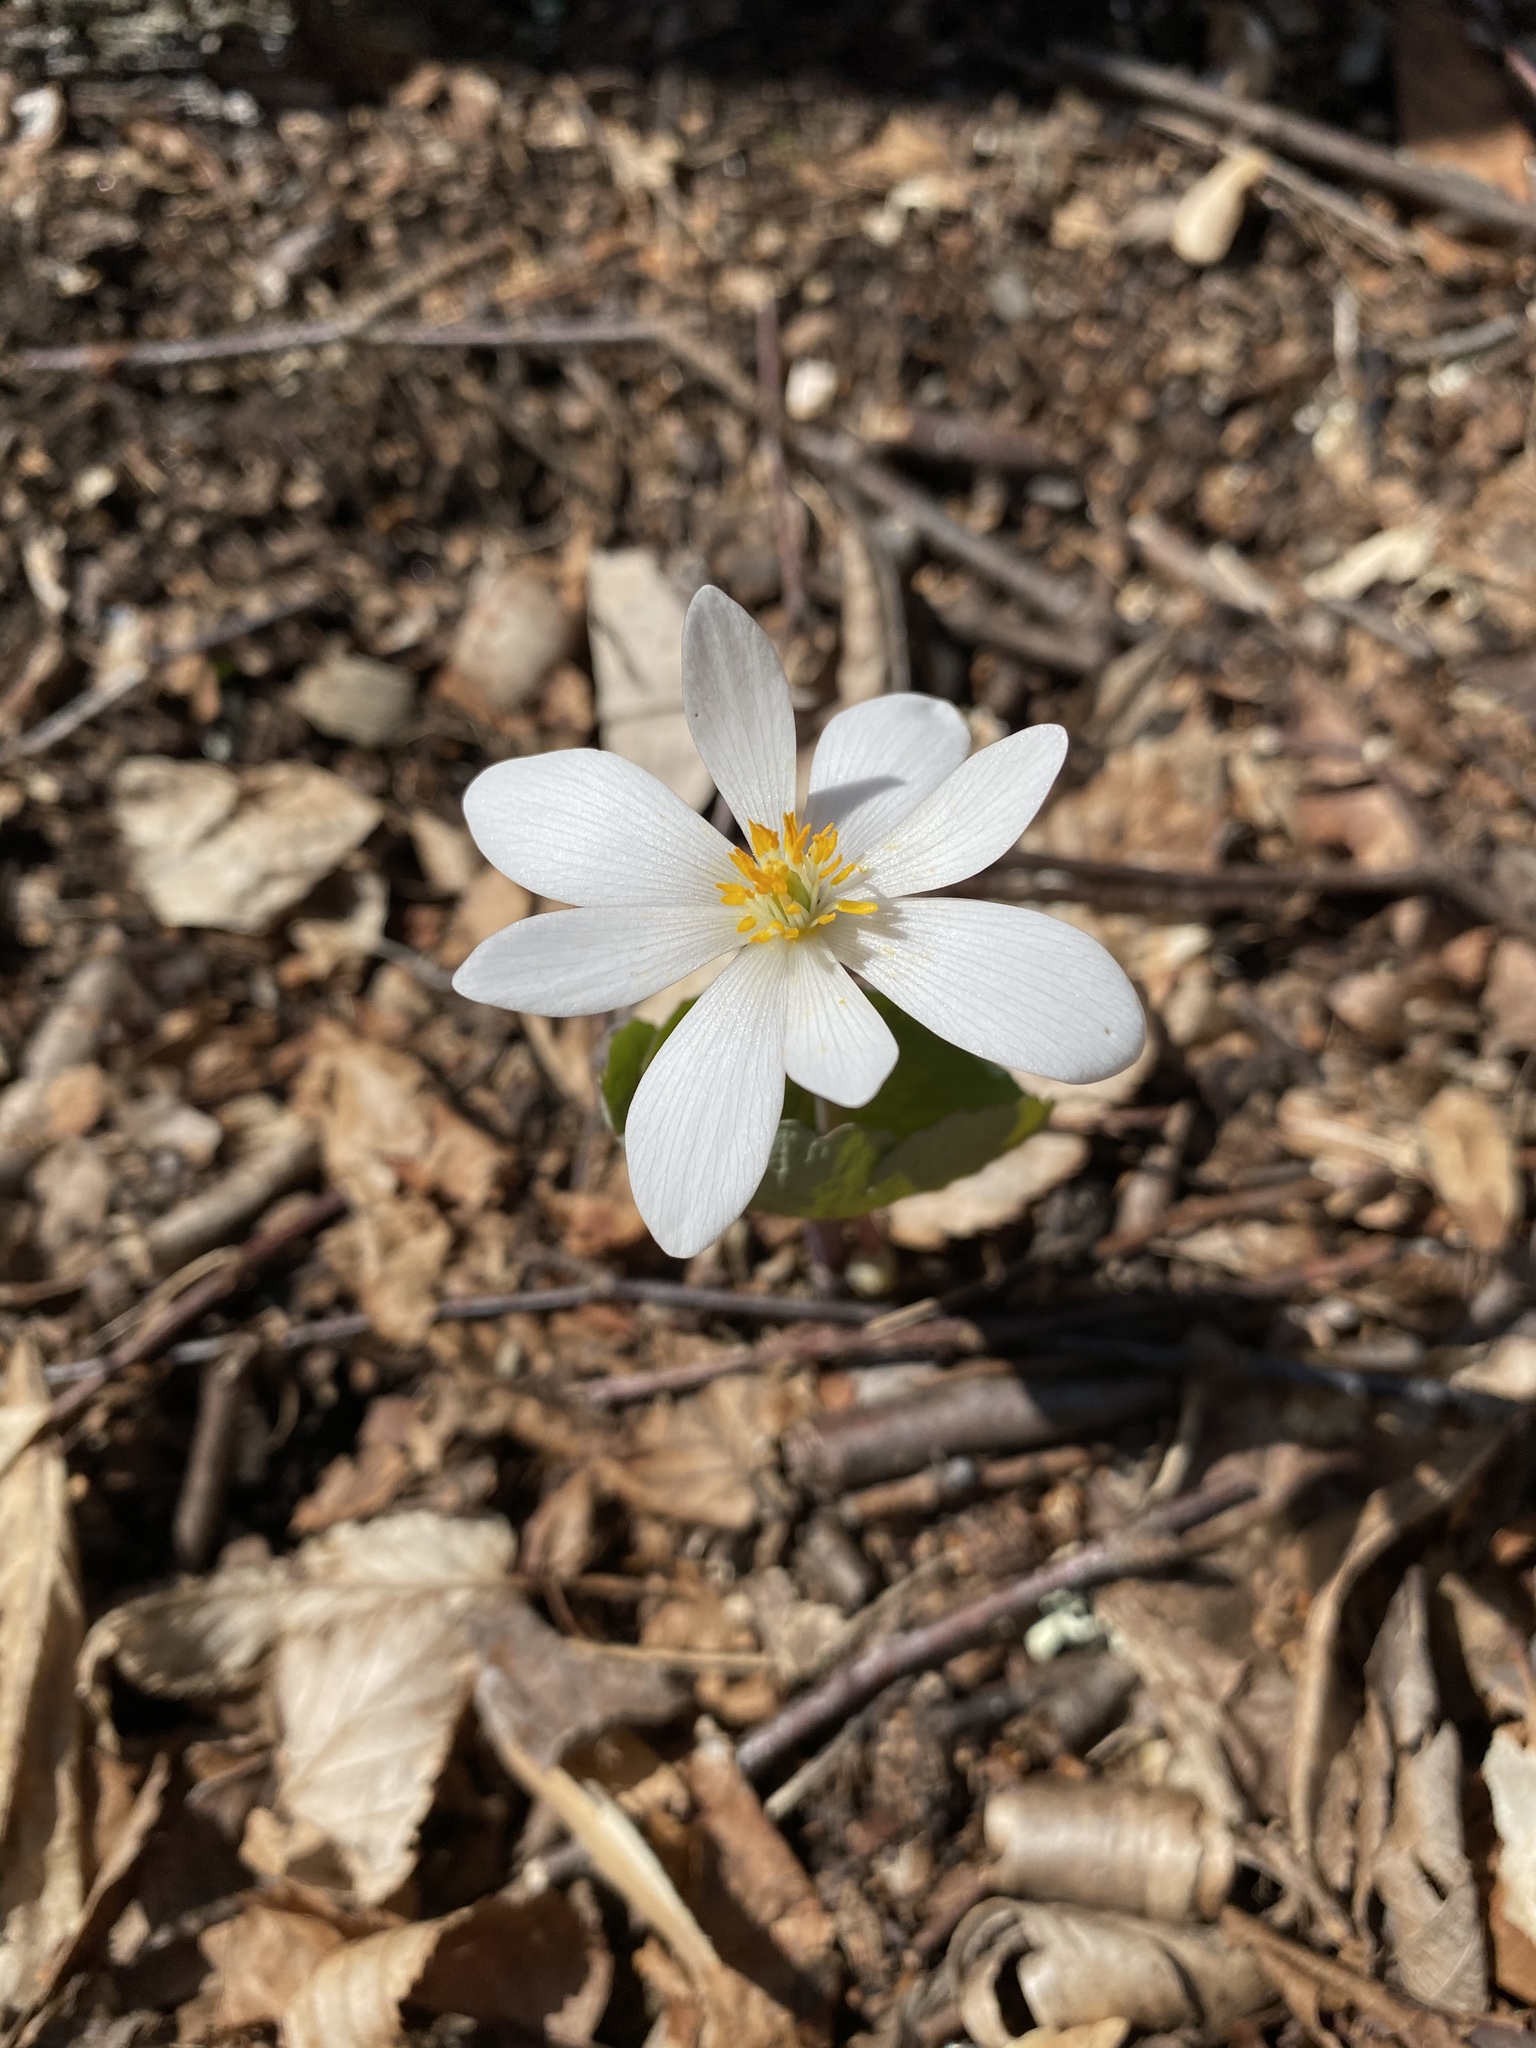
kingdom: Plantae
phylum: Tracheophyta
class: Magnoliopsida
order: Ranunculales
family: Papaveraceae
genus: Sanguinaria
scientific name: Sanguinaria canadensis
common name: Bloodroot
